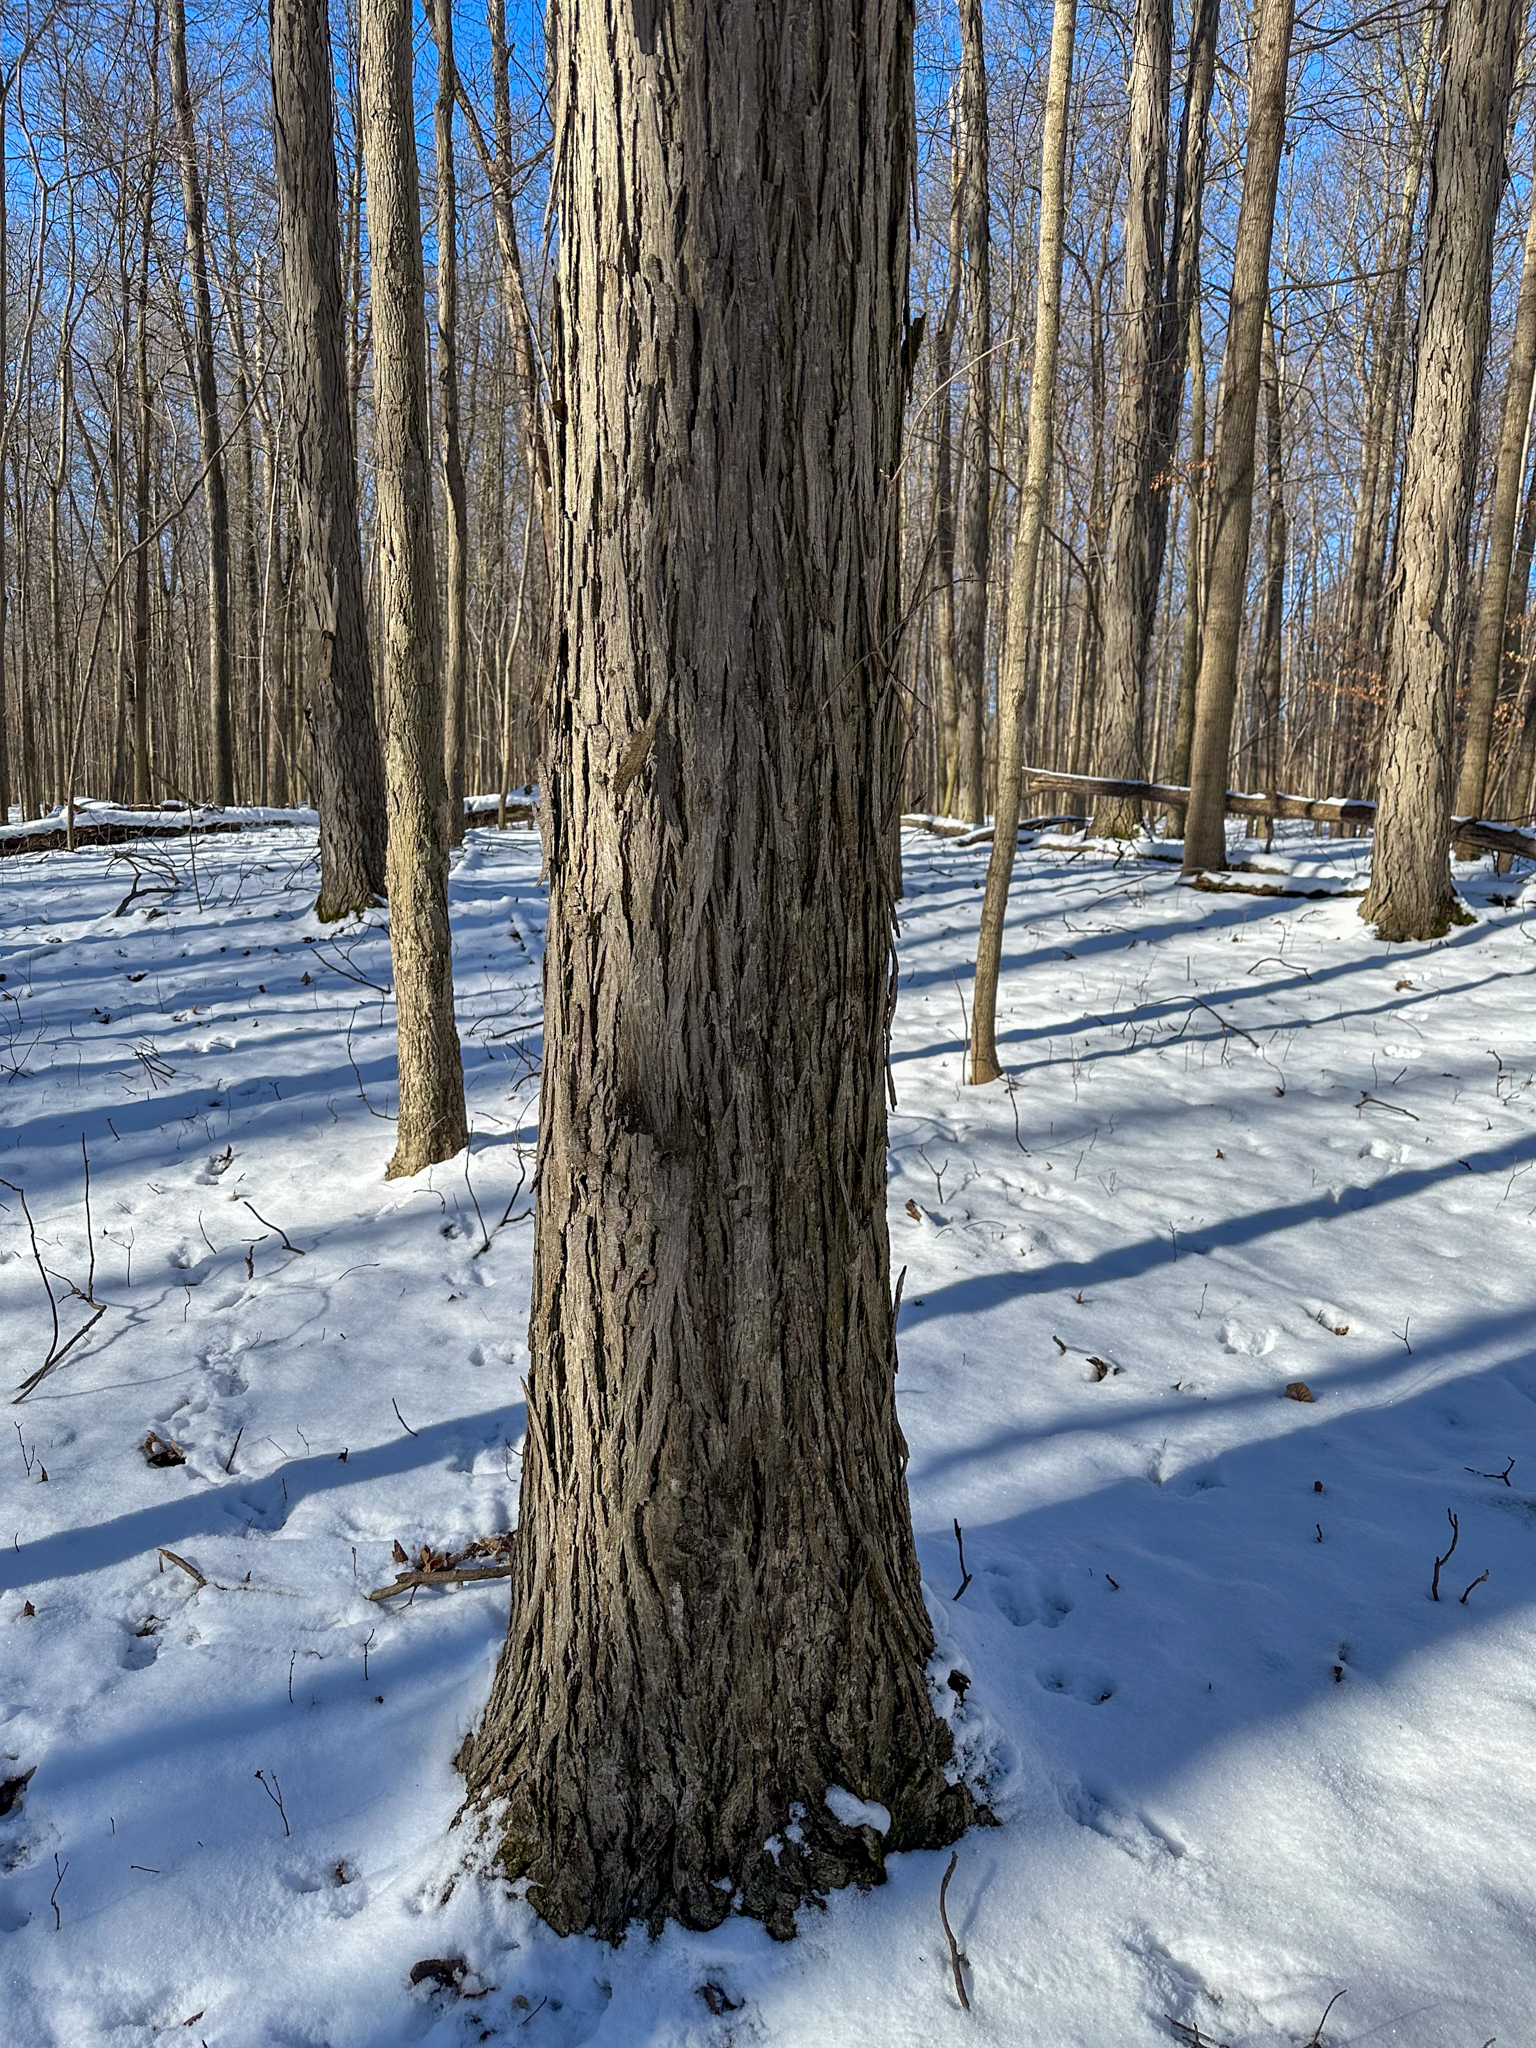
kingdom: Plantae
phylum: Tracheophyta
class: Magnoliopsida
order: Fagales
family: Juglandaceae
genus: Carya
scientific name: Carya ovata
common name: Shagbark hickory
